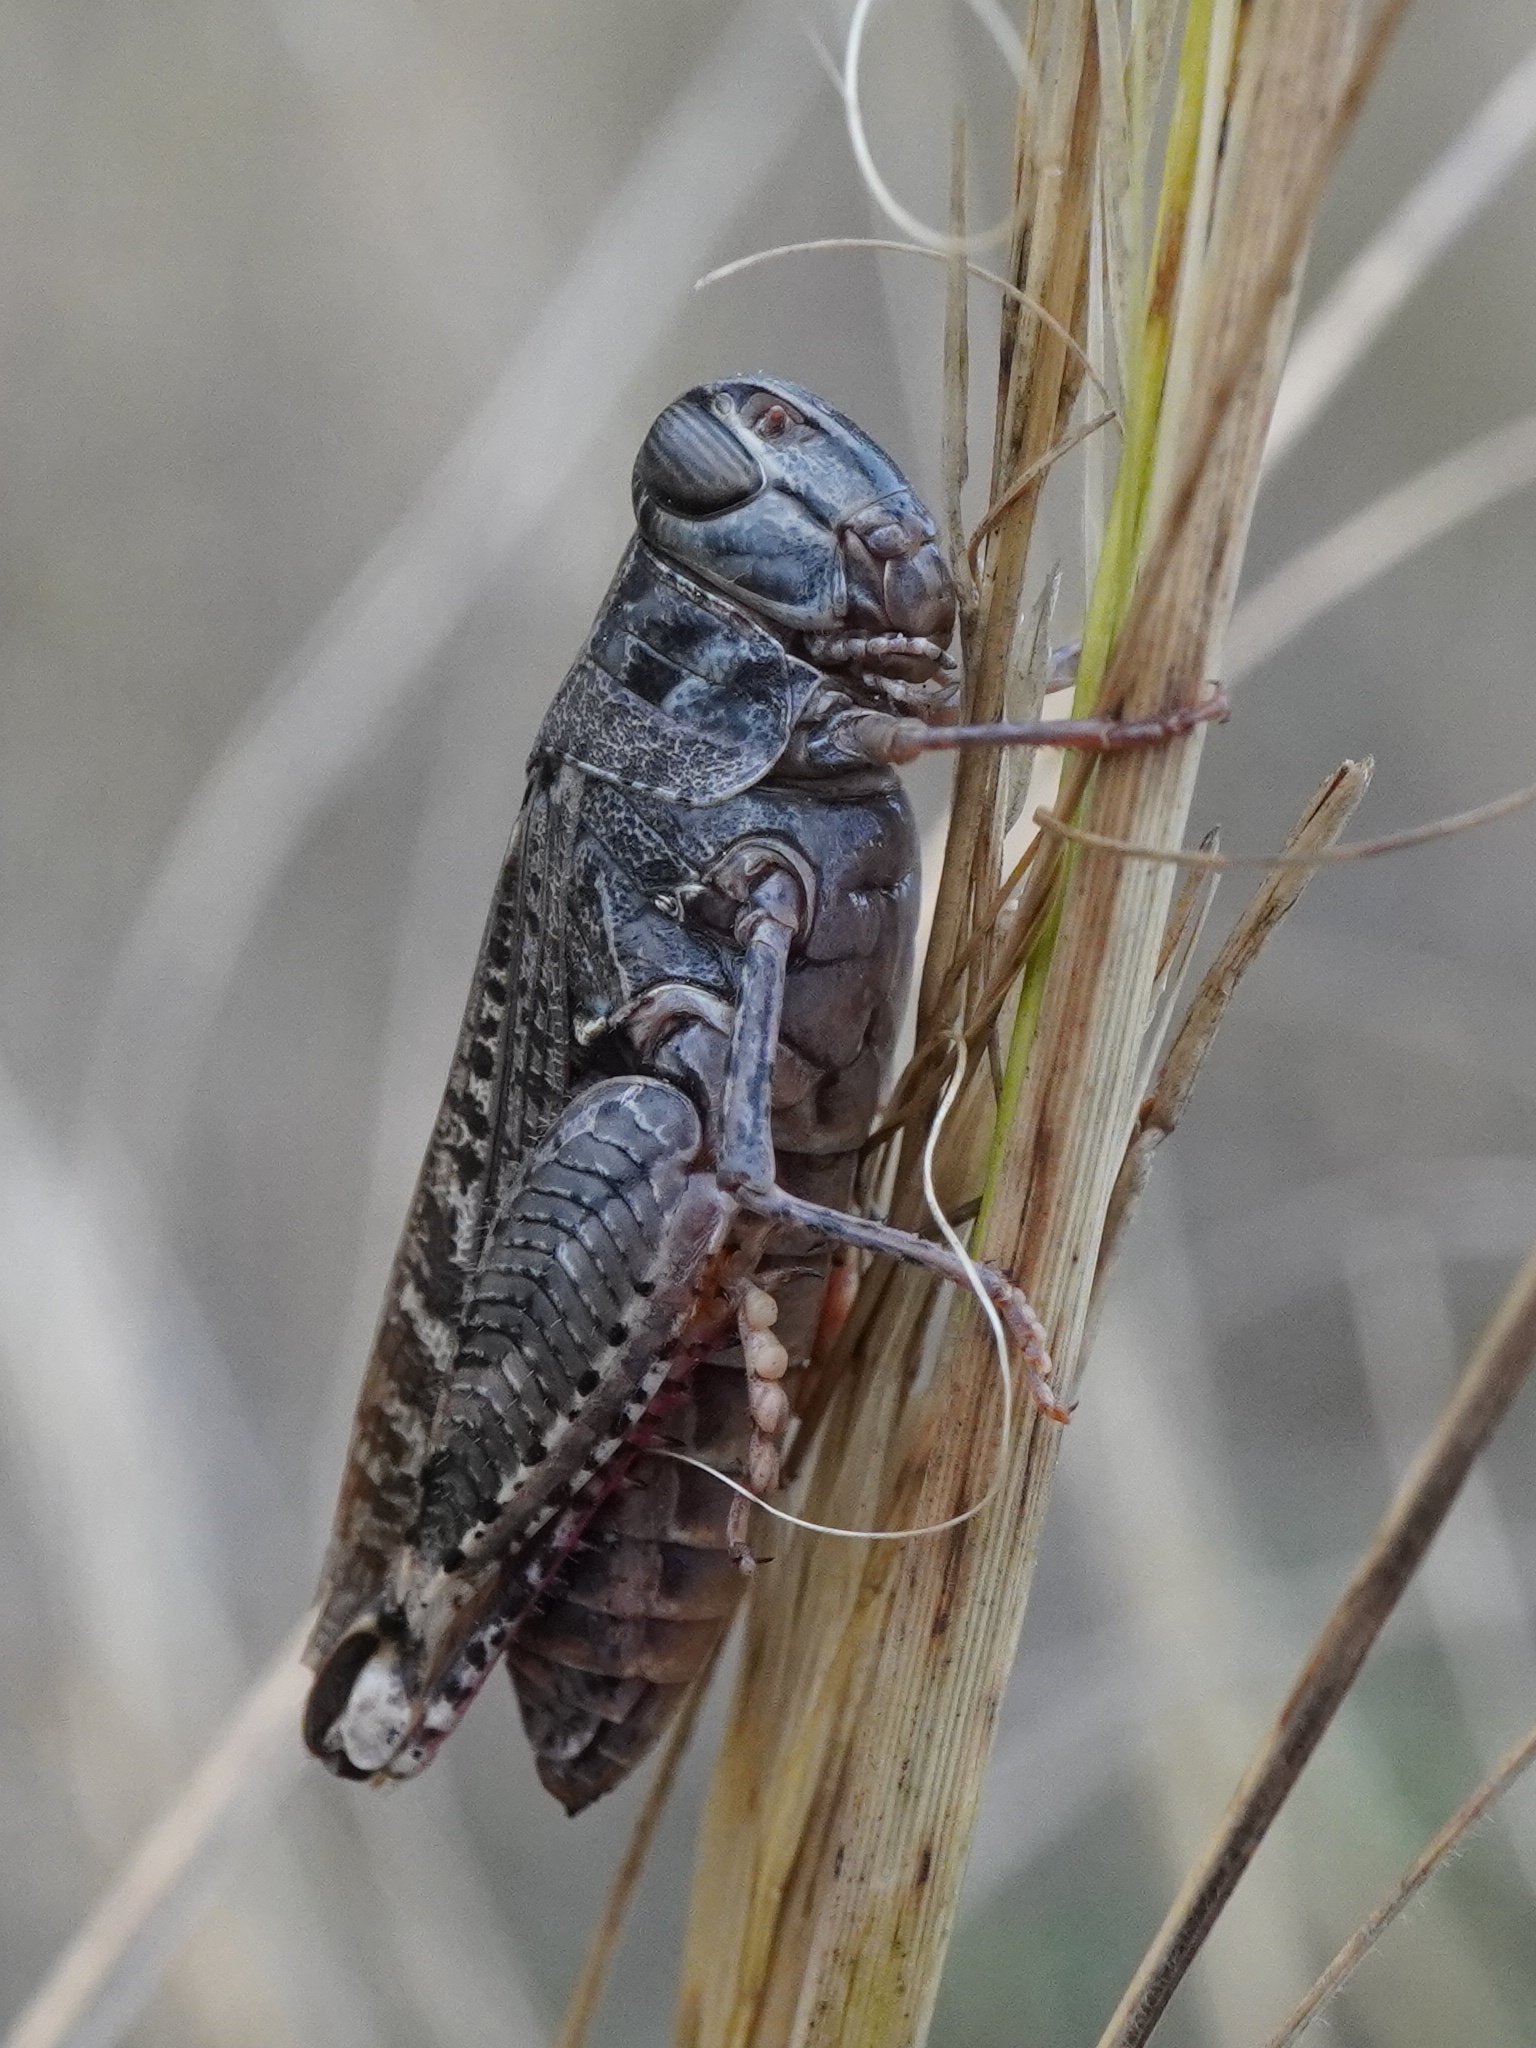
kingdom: Animalia
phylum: Arthropoda
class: Insecta
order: Orthoptera
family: Acrididae
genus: Calliptamus
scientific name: Calliptamus italicus
